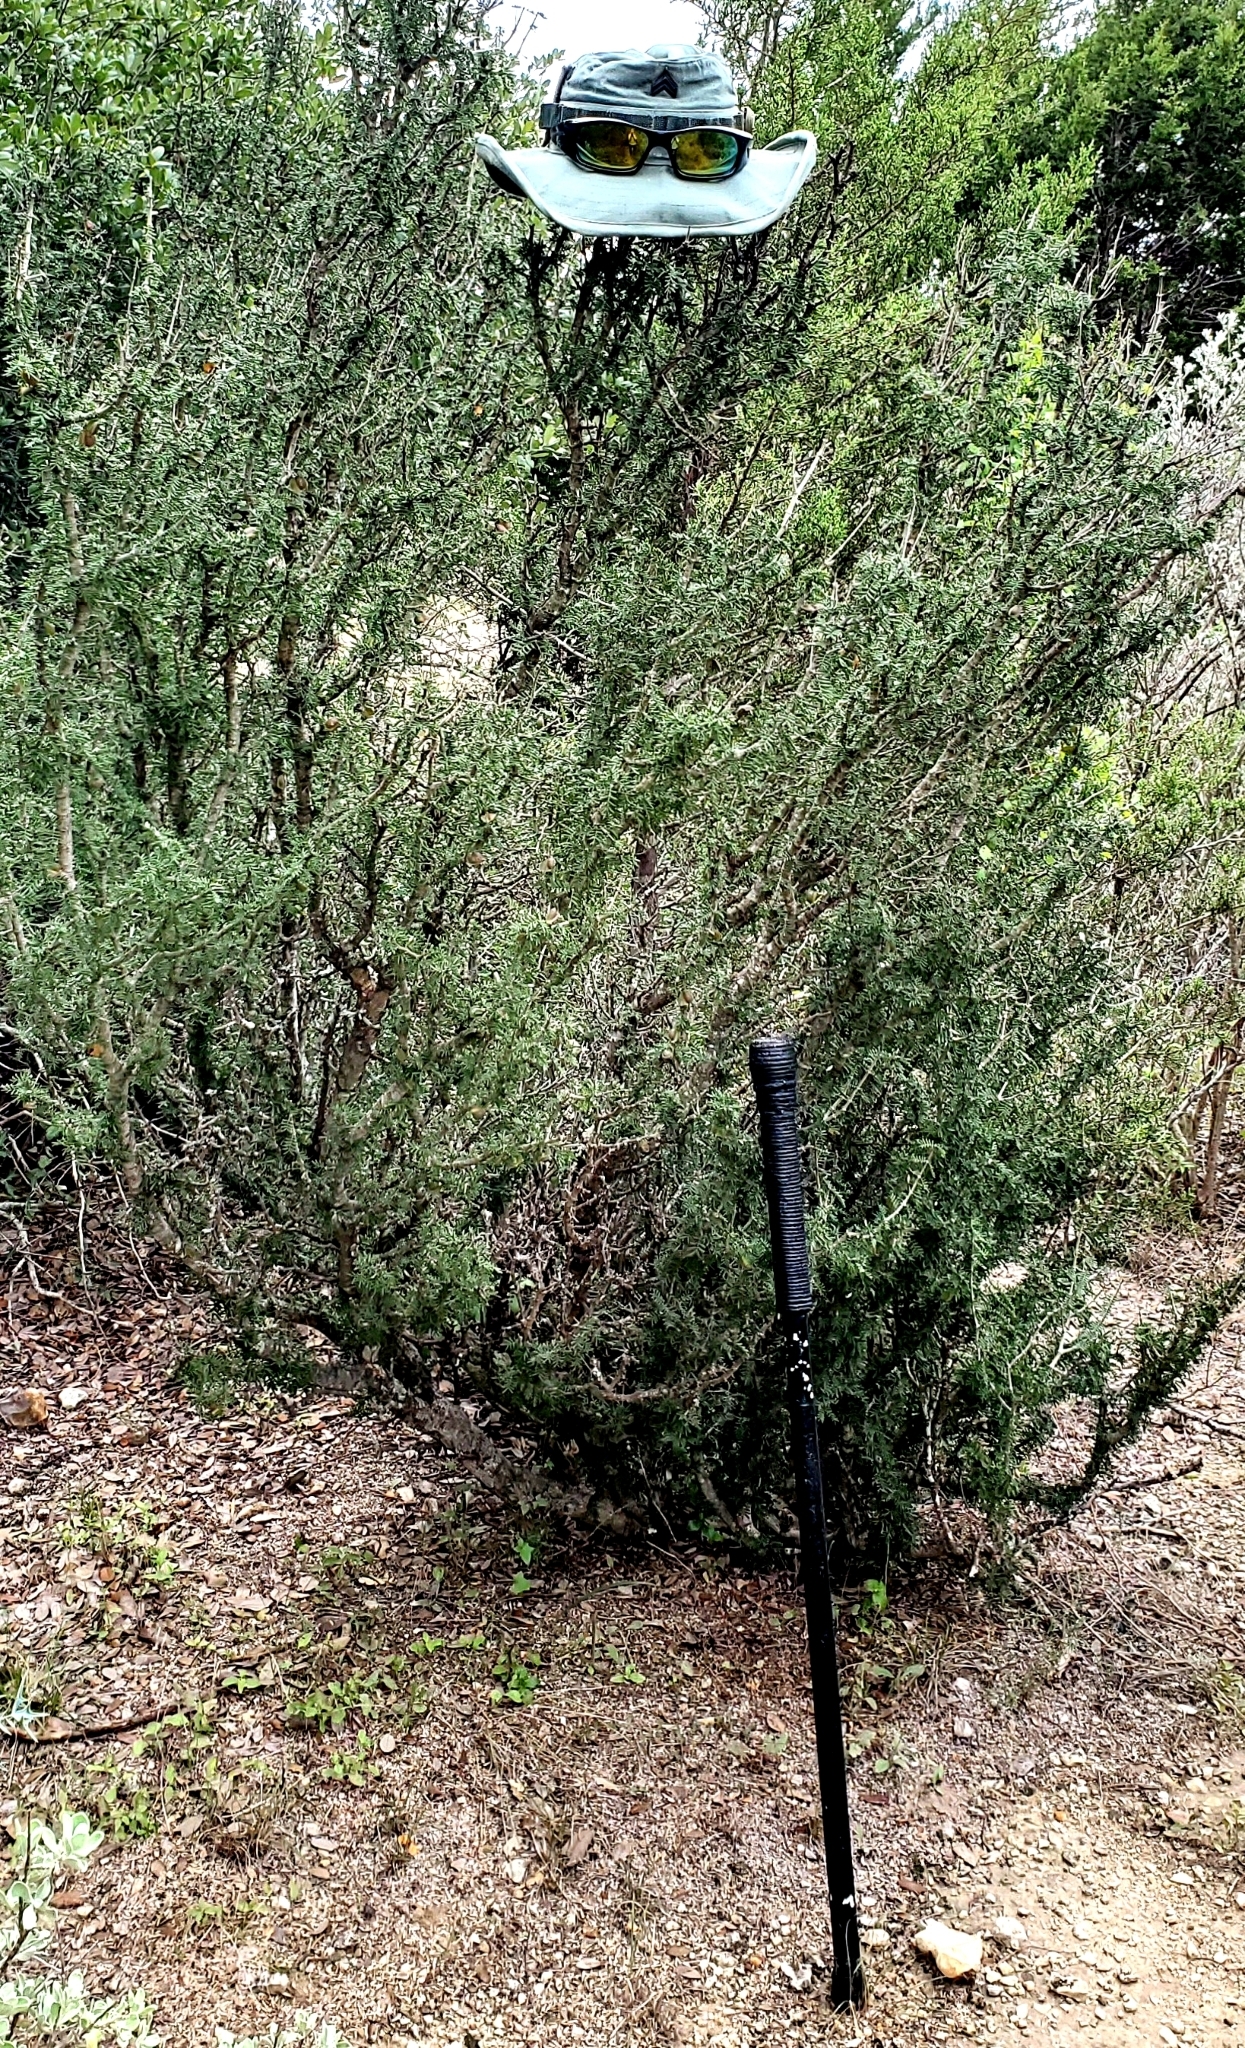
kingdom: Plantae
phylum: Tracheophyta
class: Magnoliopsida
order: Zygophyllales
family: Zygophyllaceae
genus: Porlieria
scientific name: Porlieria angustifolia
